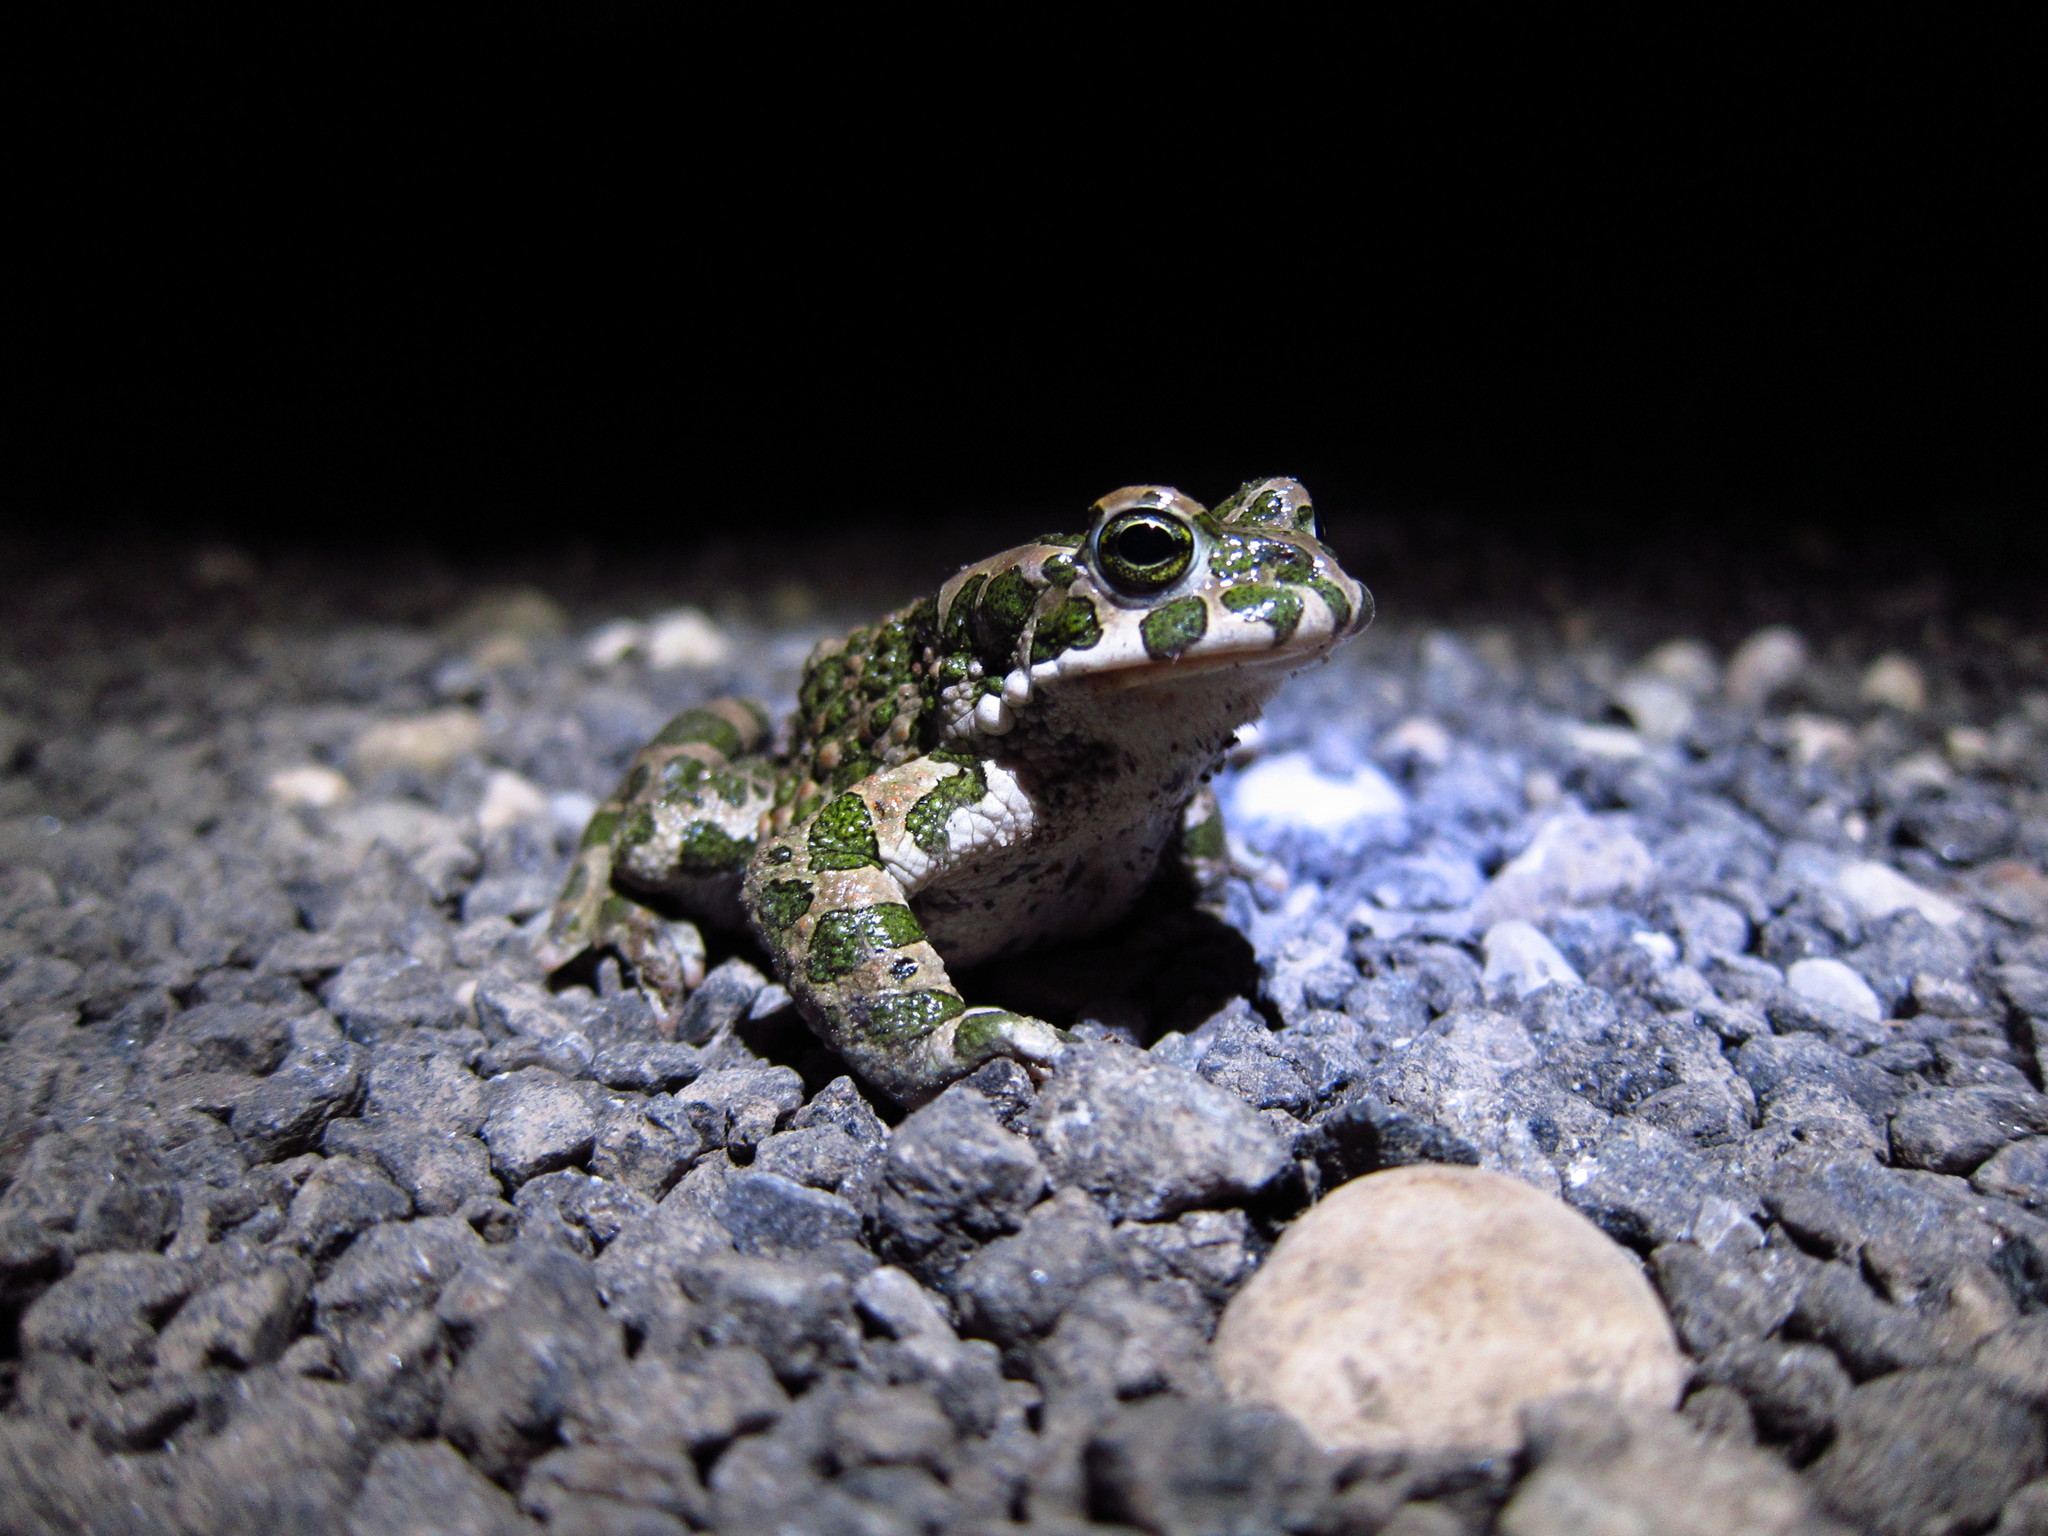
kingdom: Animalia
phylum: Chordata
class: Amphibia
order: Anura
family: Bufonidae
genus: Bufotes
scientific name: Bufotes viridis
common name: European green toad
